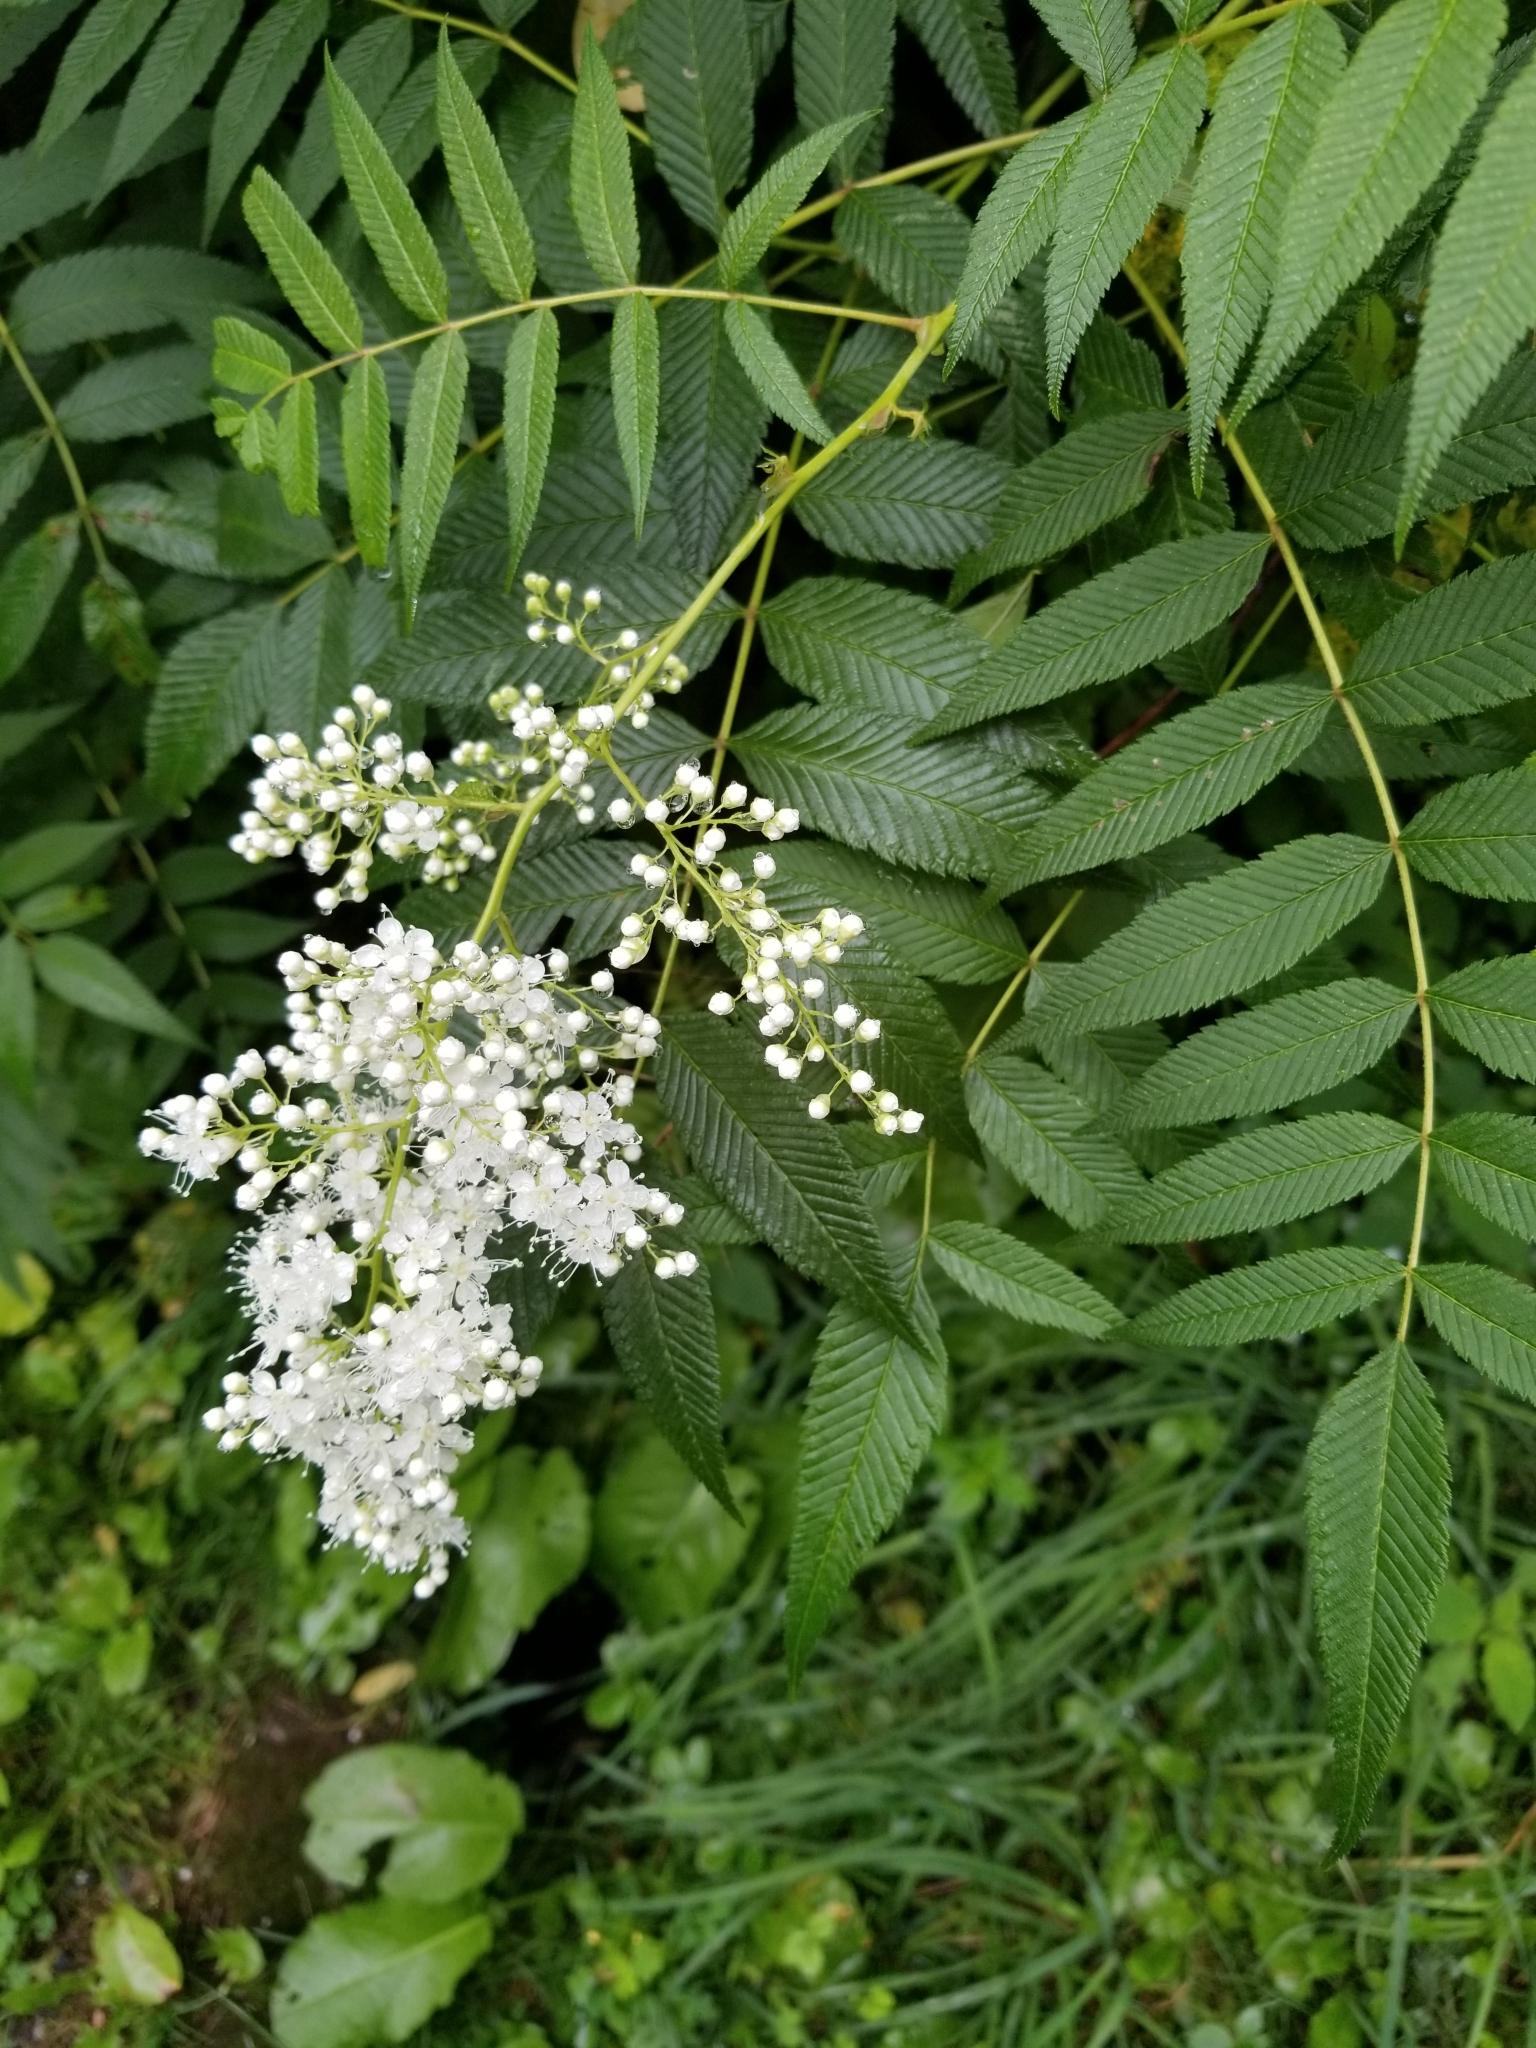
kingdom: Plantae
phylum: Tracheophyta
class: Magnoliopsida
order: Rosales
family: Rosaceae
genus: Sorbaria
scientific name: Sorbaria sorbifolia
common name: False spiraea
